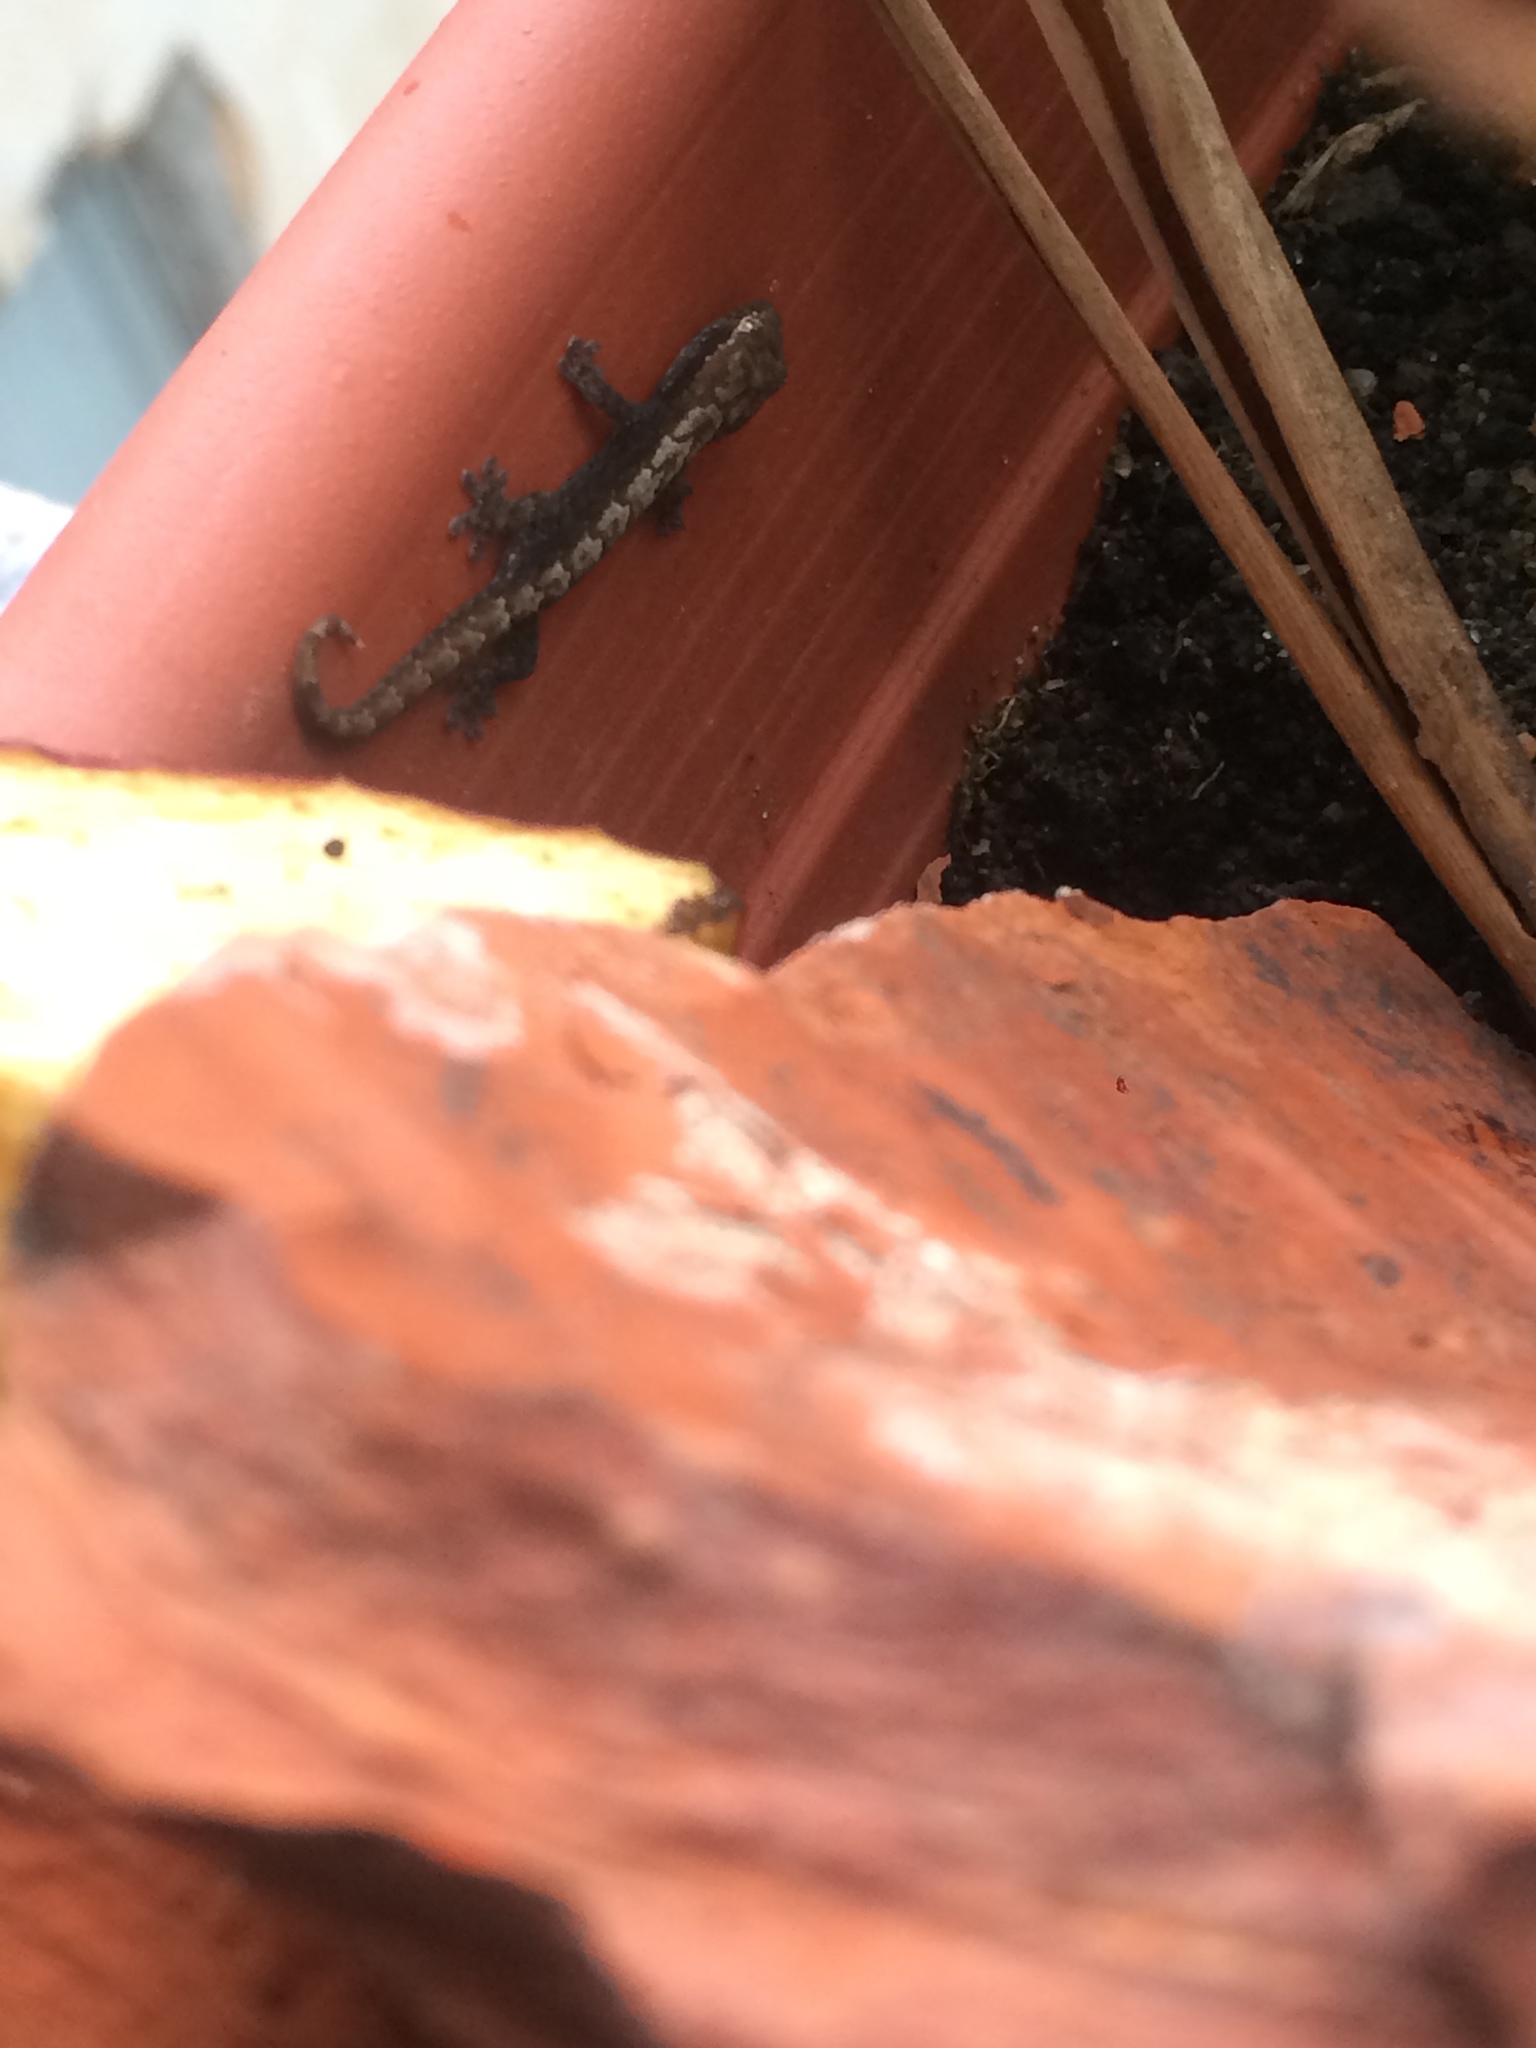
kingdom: Animalia
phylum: Chordata
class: Squamata
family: Gekkonidae
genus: Lepidodactylus
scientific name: Lepidodactylus lugubris
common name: Mourning gecko
